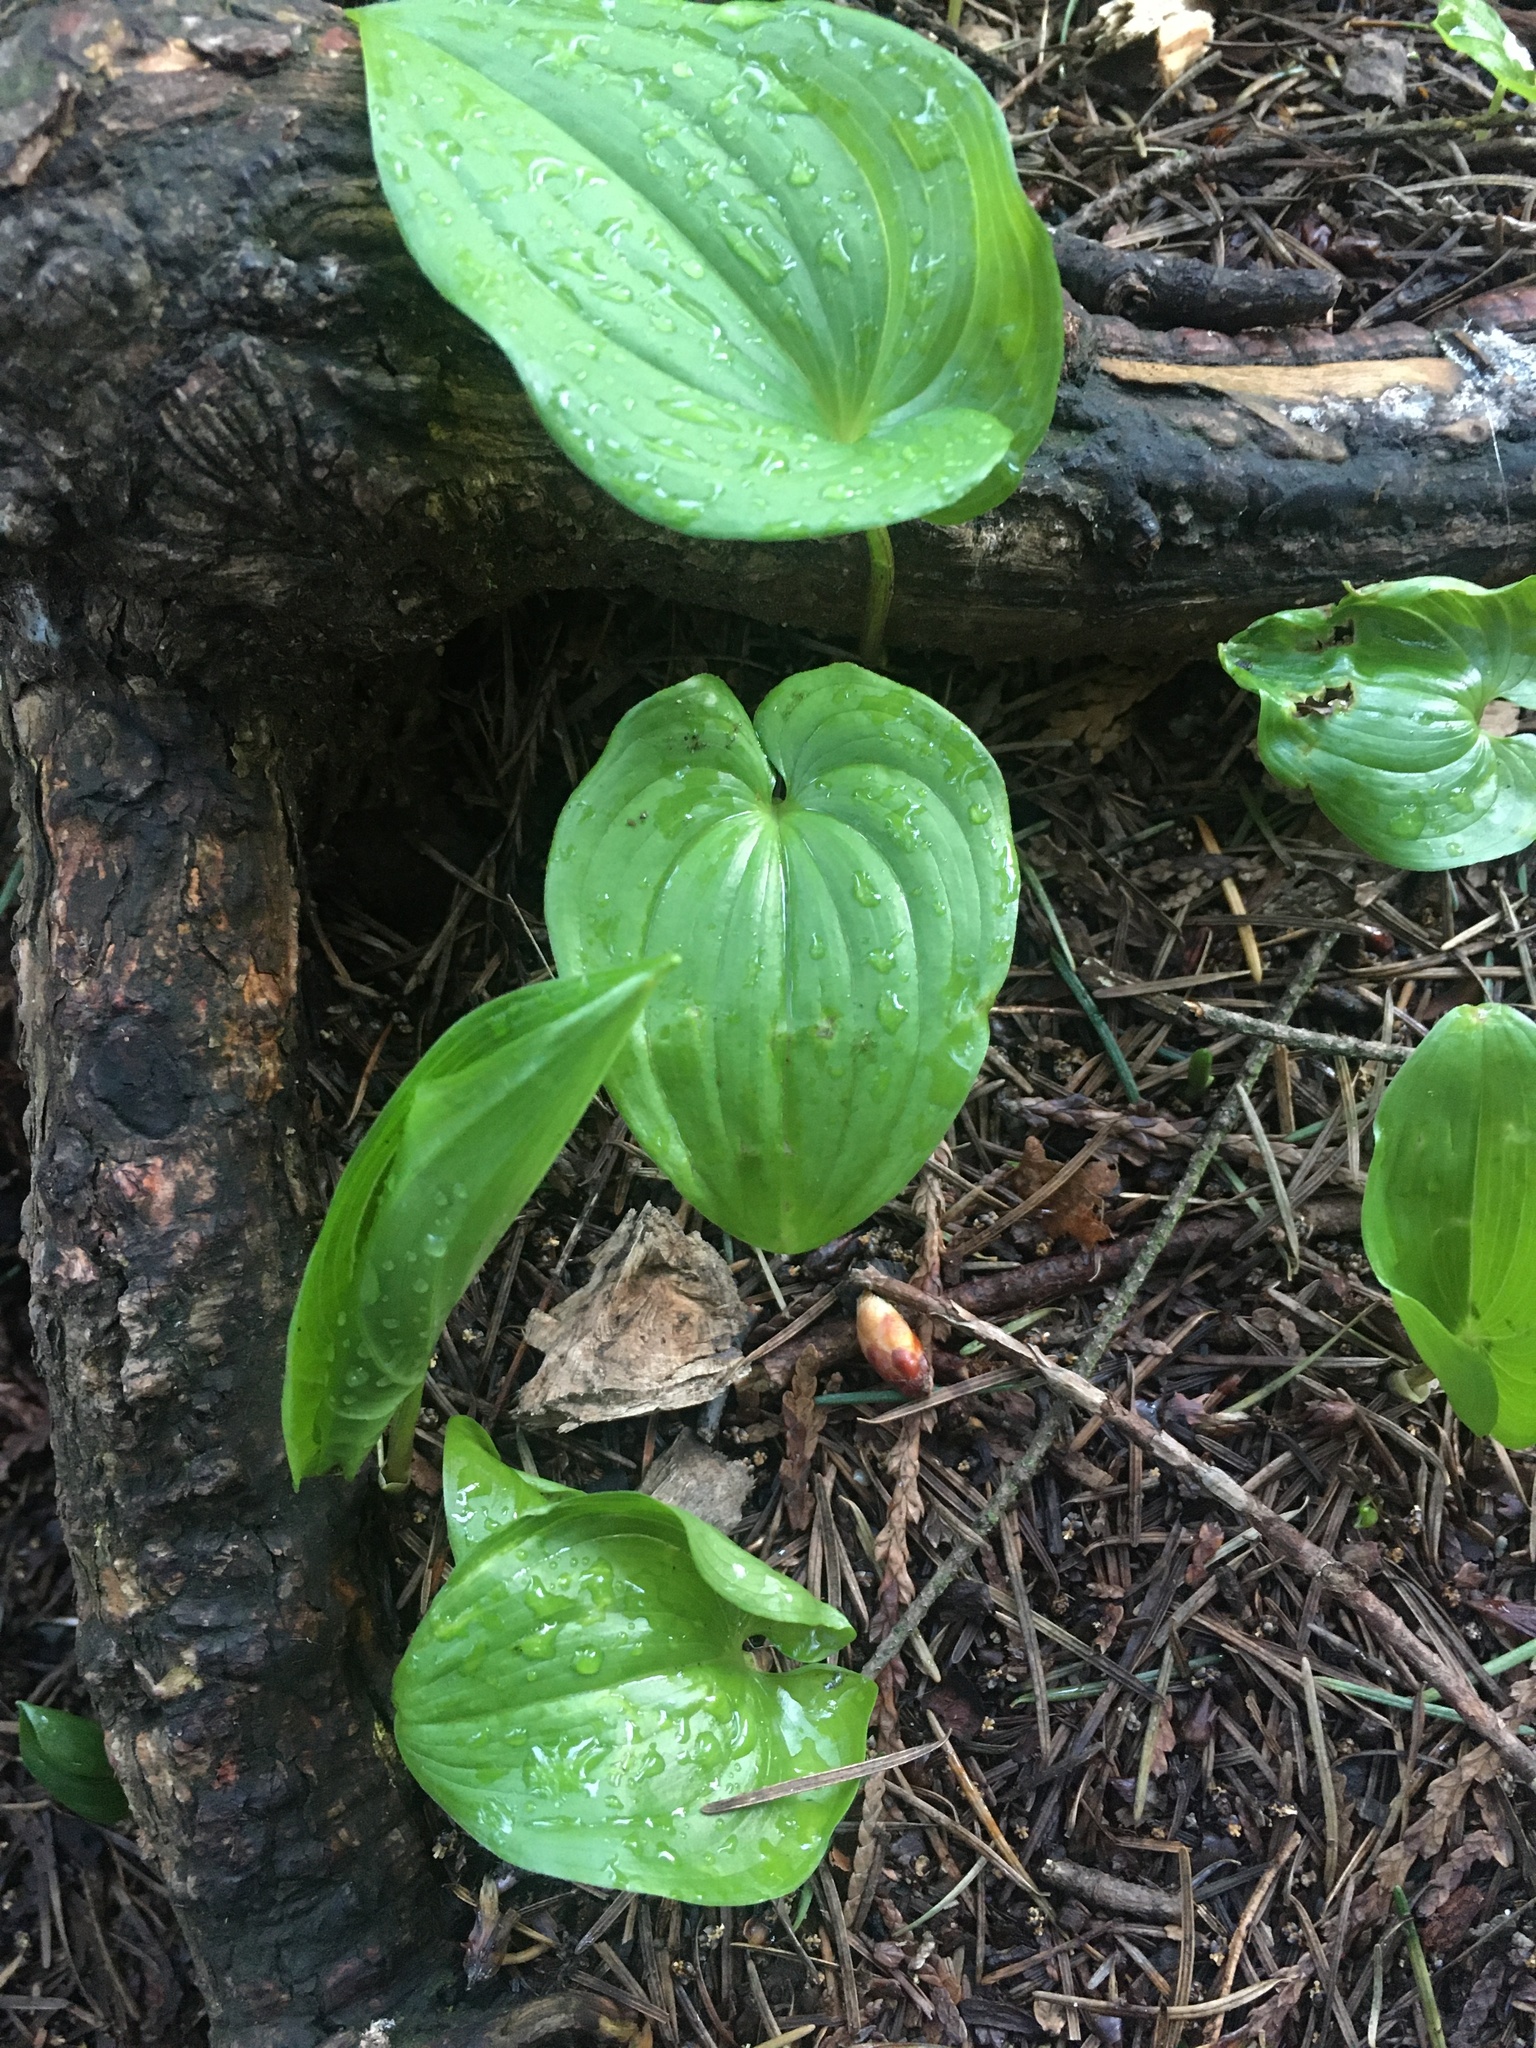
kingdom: Plantae
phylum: Tracheophyta
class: Liliopsida
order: Asparagales
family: Asparagaceae
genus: Maianthemum
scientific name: Maianthemum dilatatum
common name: False lily-of-the-valley
